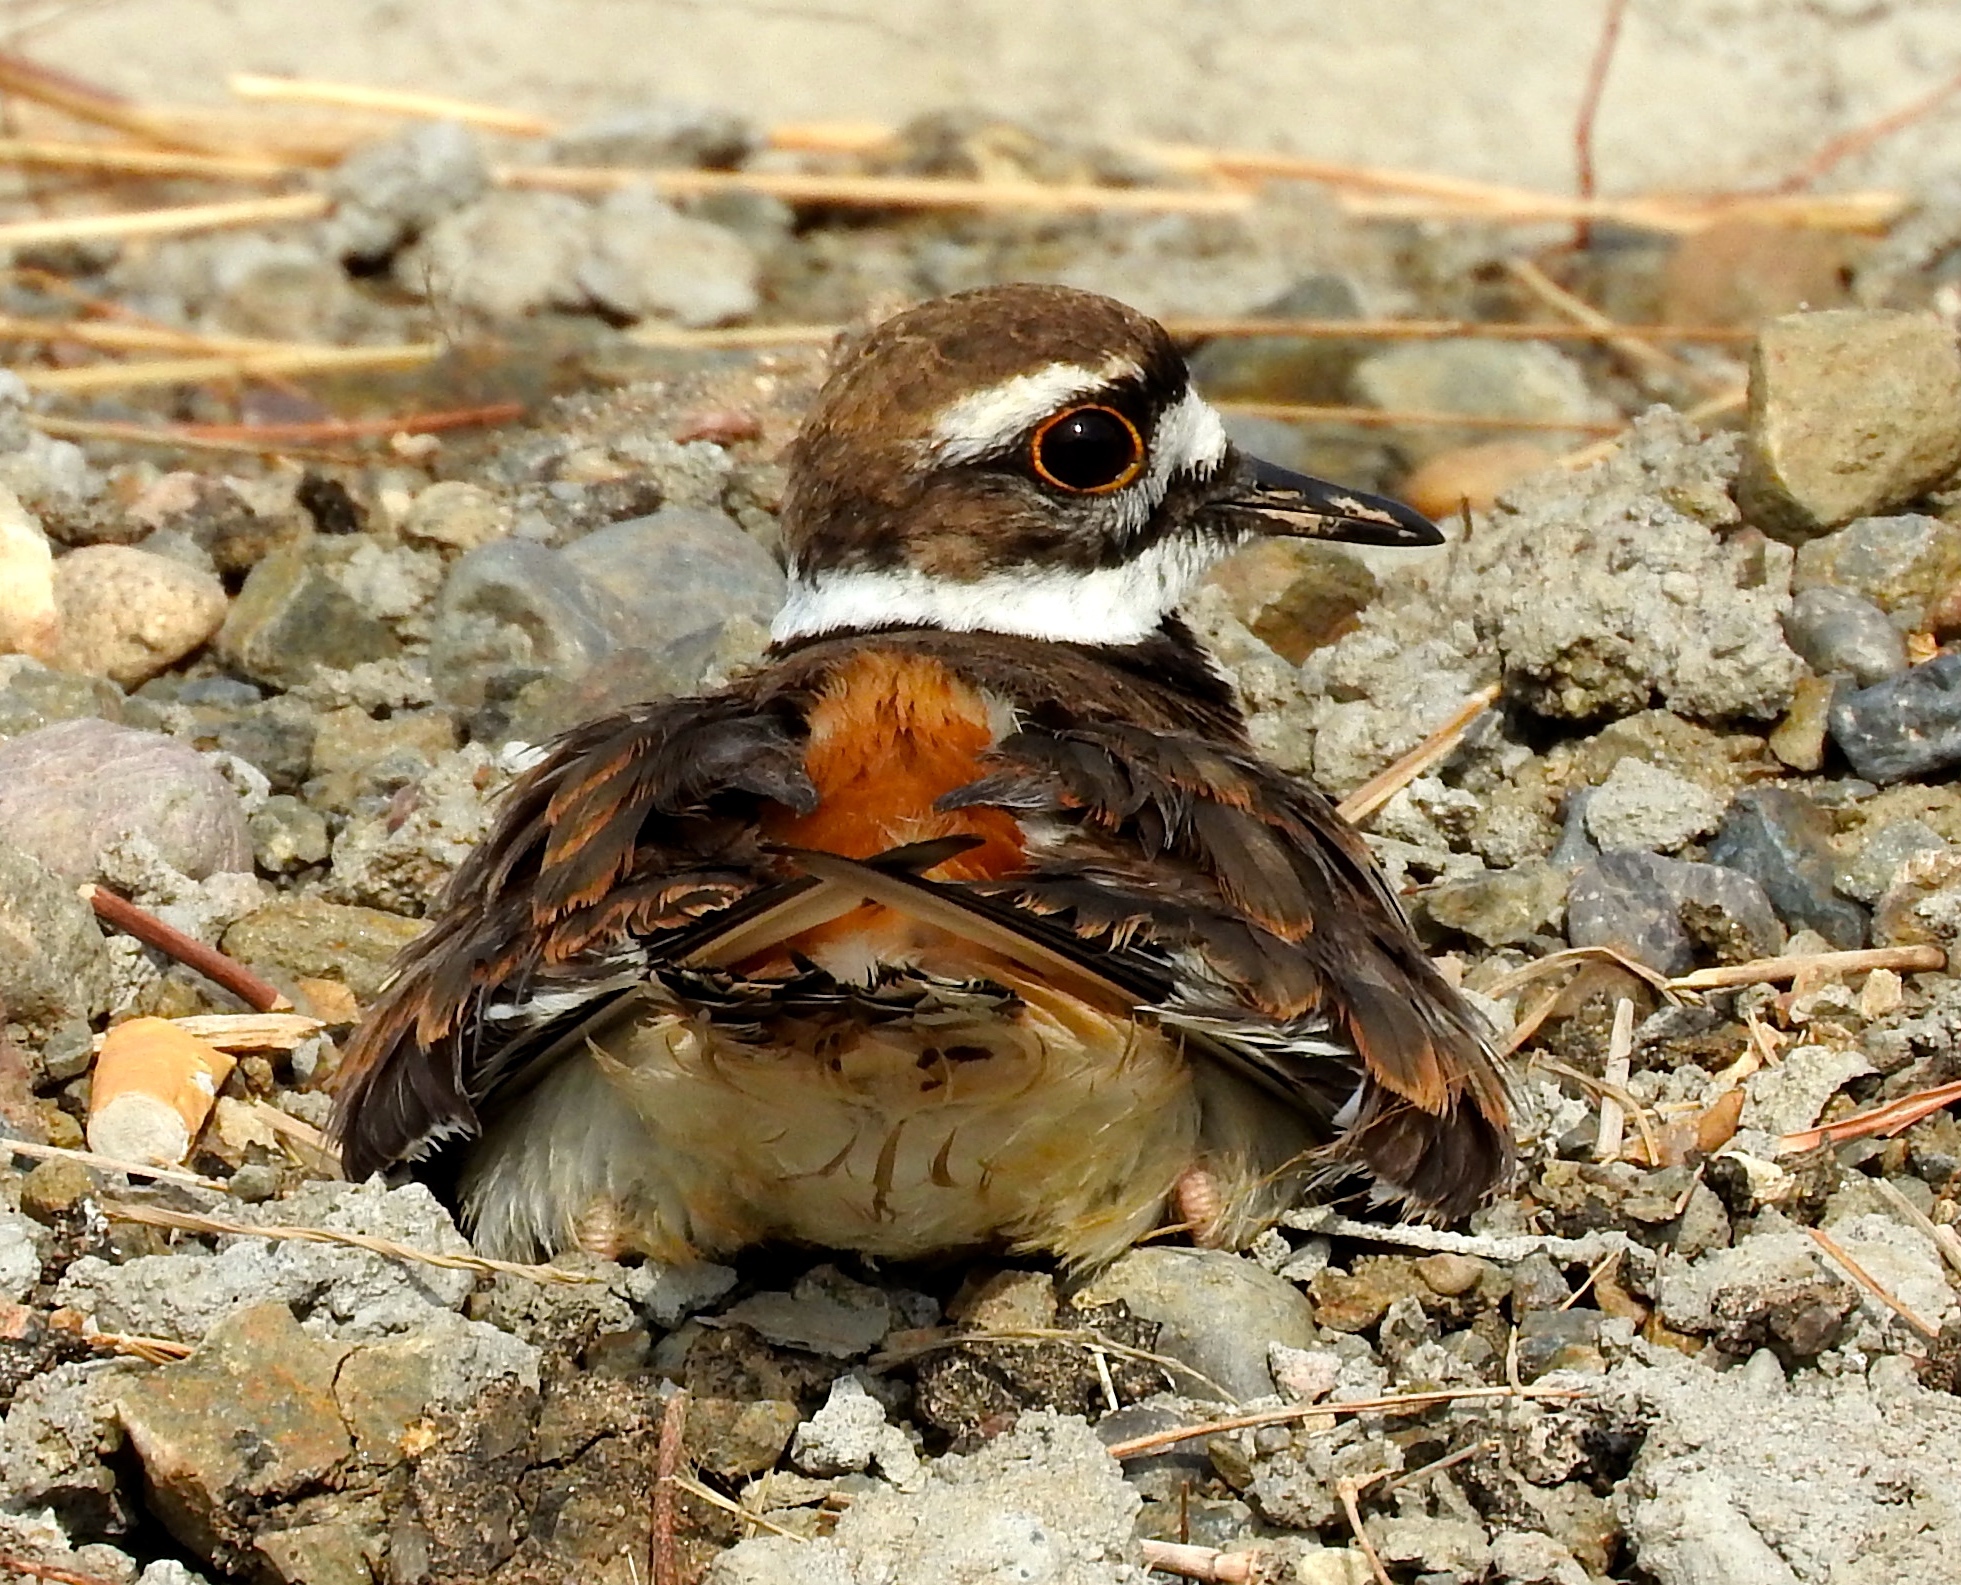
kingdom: Animalia
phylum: Chordata
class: Aves
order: Charadriiformes
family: Charadriidae
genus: Charadrius
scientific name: Charadrius vociferus
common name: Killdeer
